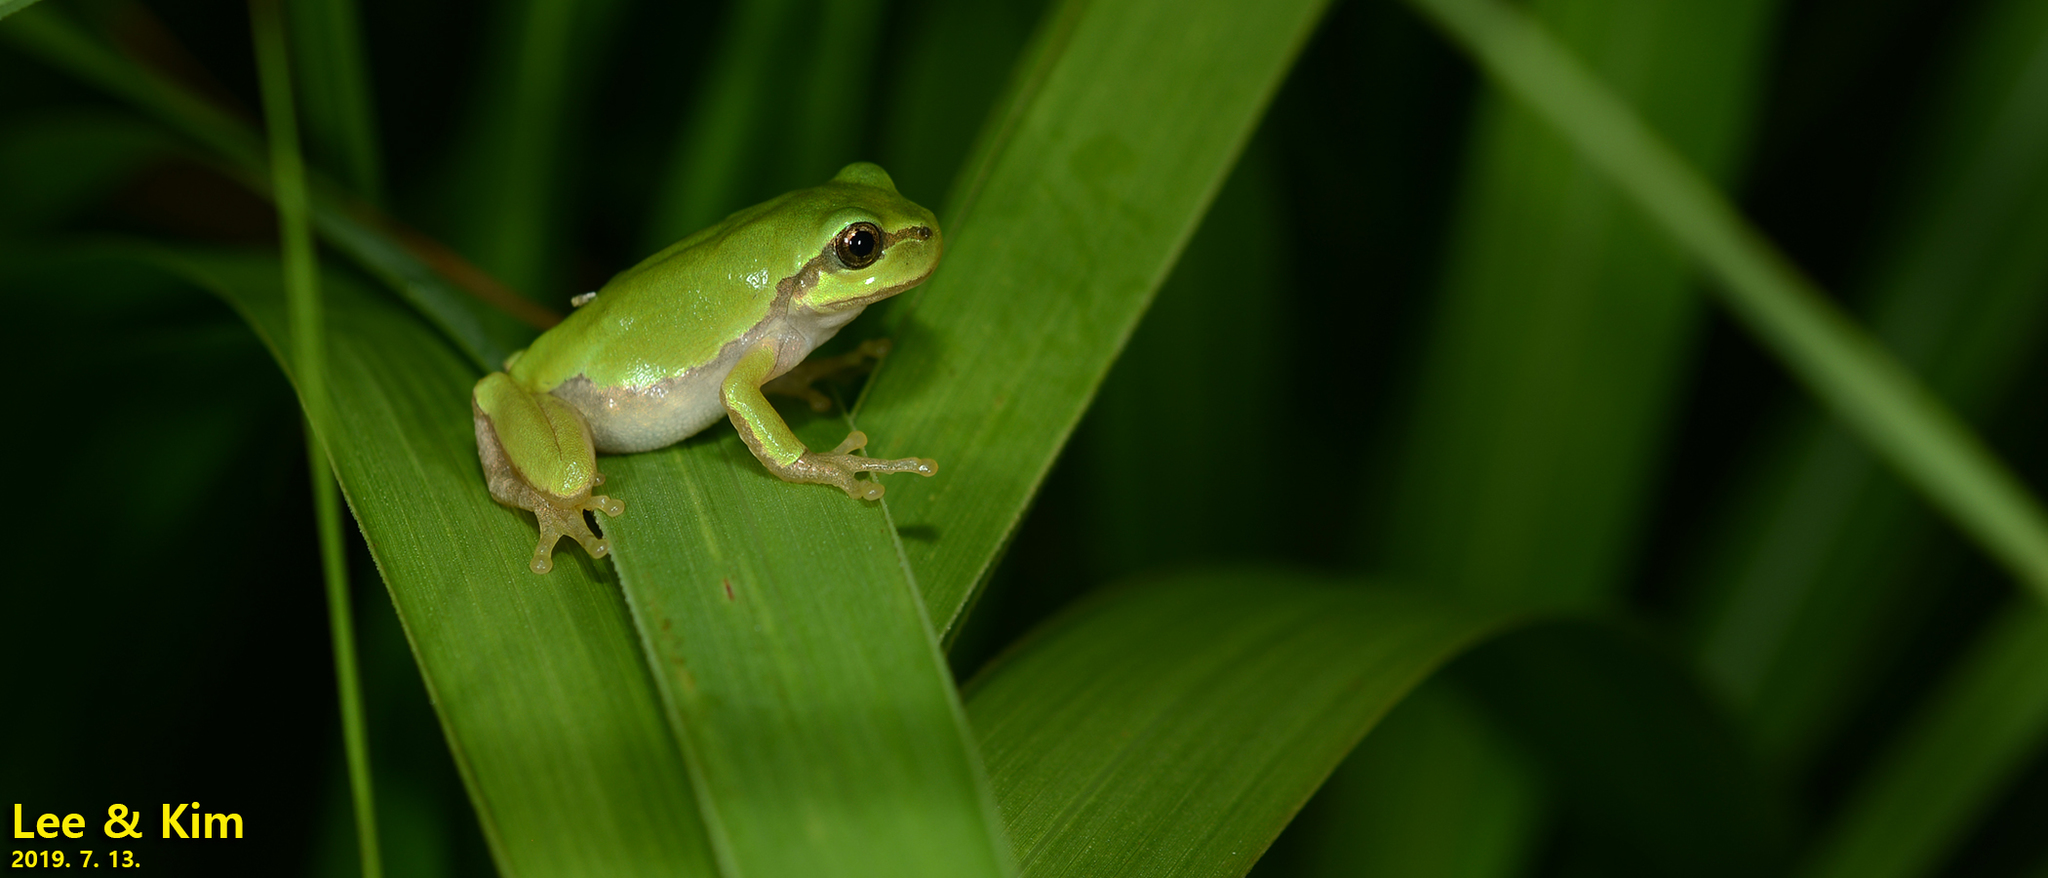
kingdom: Animalia
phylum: Chordata
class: Amphibia
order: Anura
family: Hylidae
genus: Dryophytes
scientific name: Dryophytes japonicus
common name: Japanese treefrog
